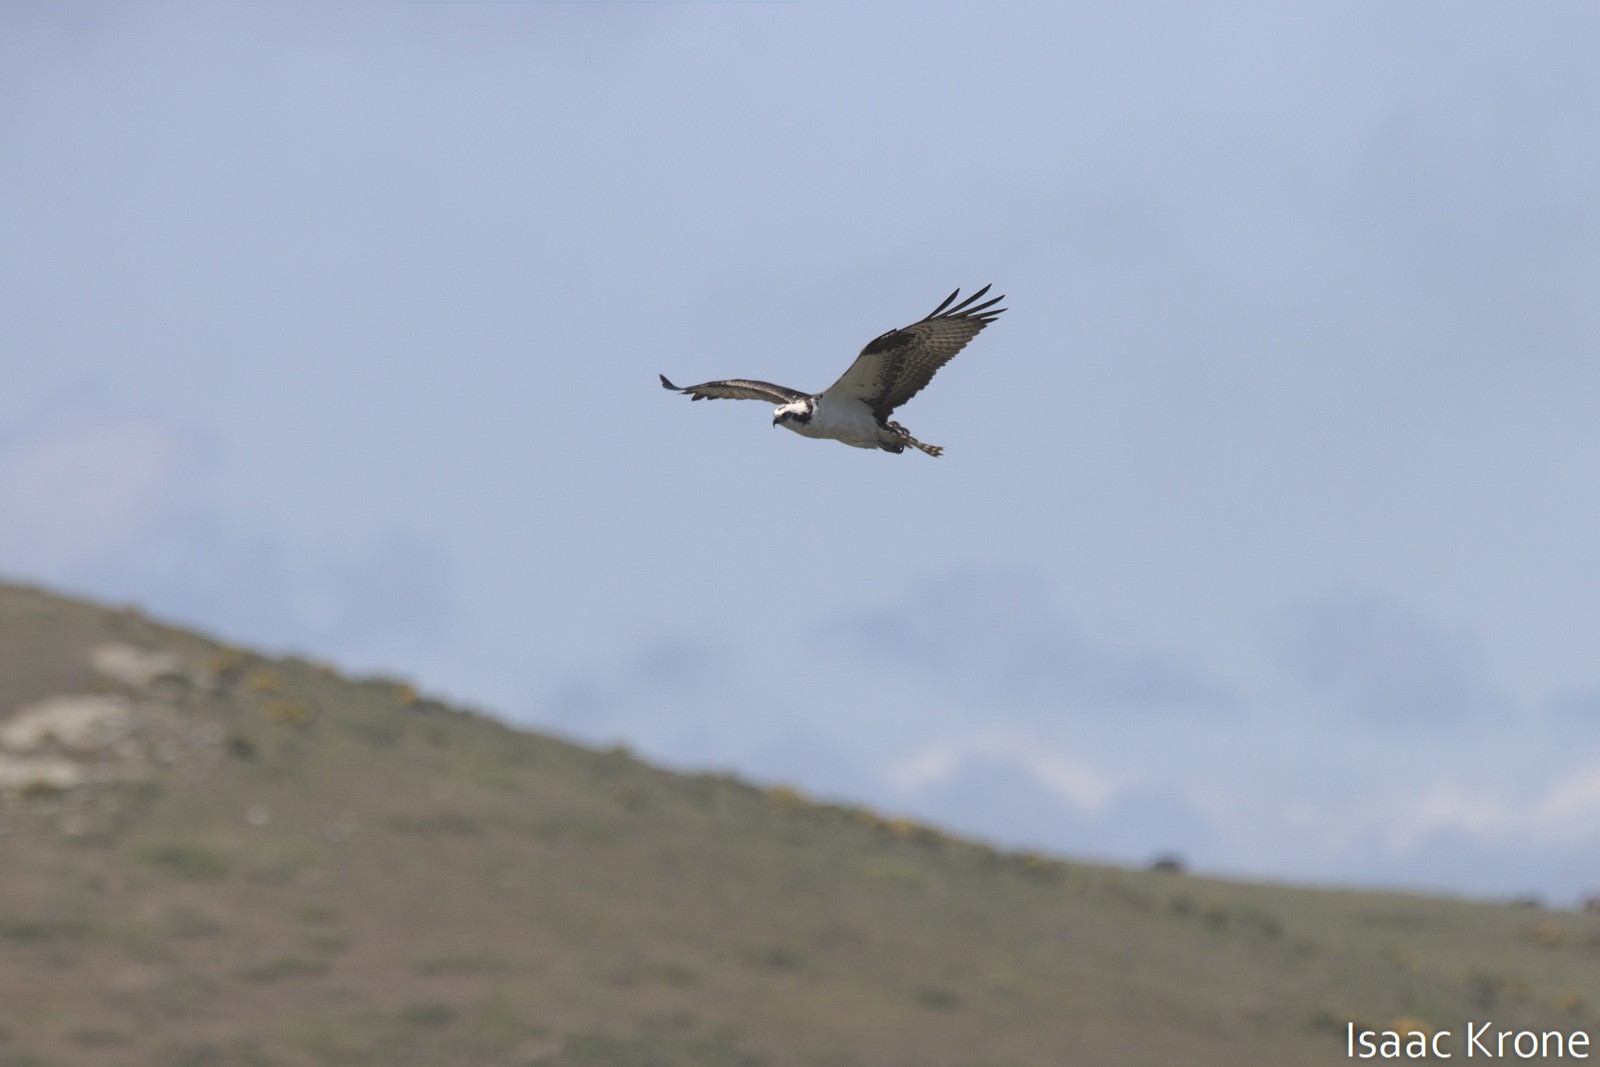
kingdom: Animalia
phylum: Chordata
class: Aves
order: Accipitriformes
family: Pandionidae
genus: Pandion
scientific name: Pandion haliaetus
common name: Osprey
